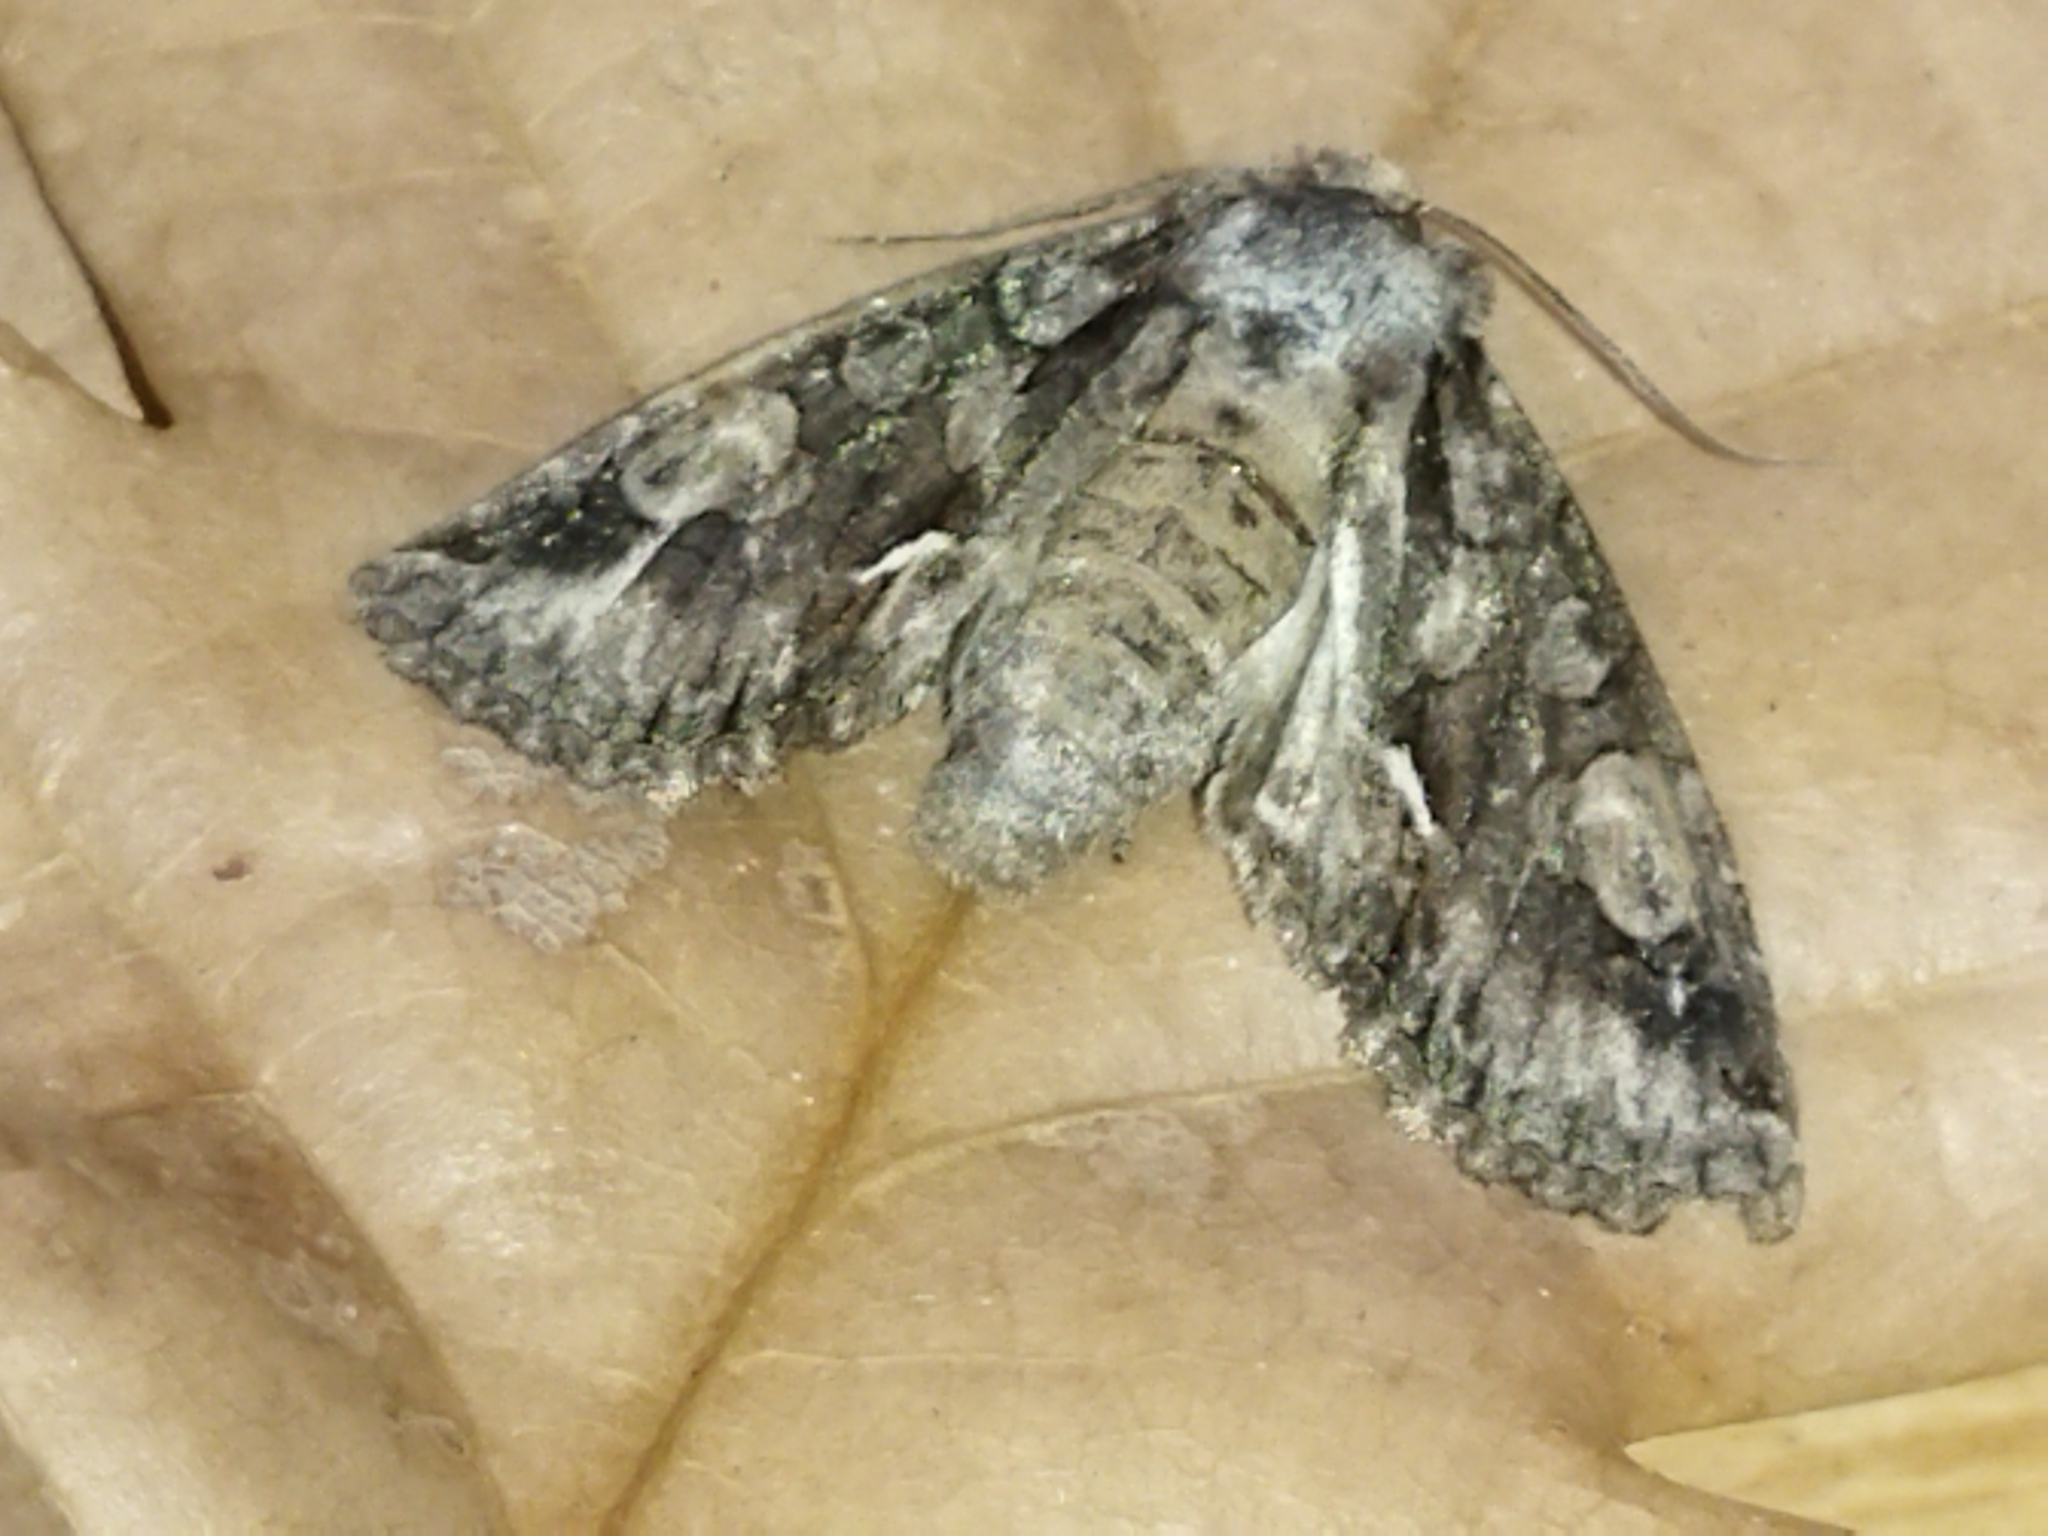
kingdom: Animalia
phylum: Arthropoda
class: Insecta
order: Lepidoptera
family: Noctuidae
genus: Allophyes
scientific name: Allophyes oxyacanthae
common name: Green-brindled crescent
